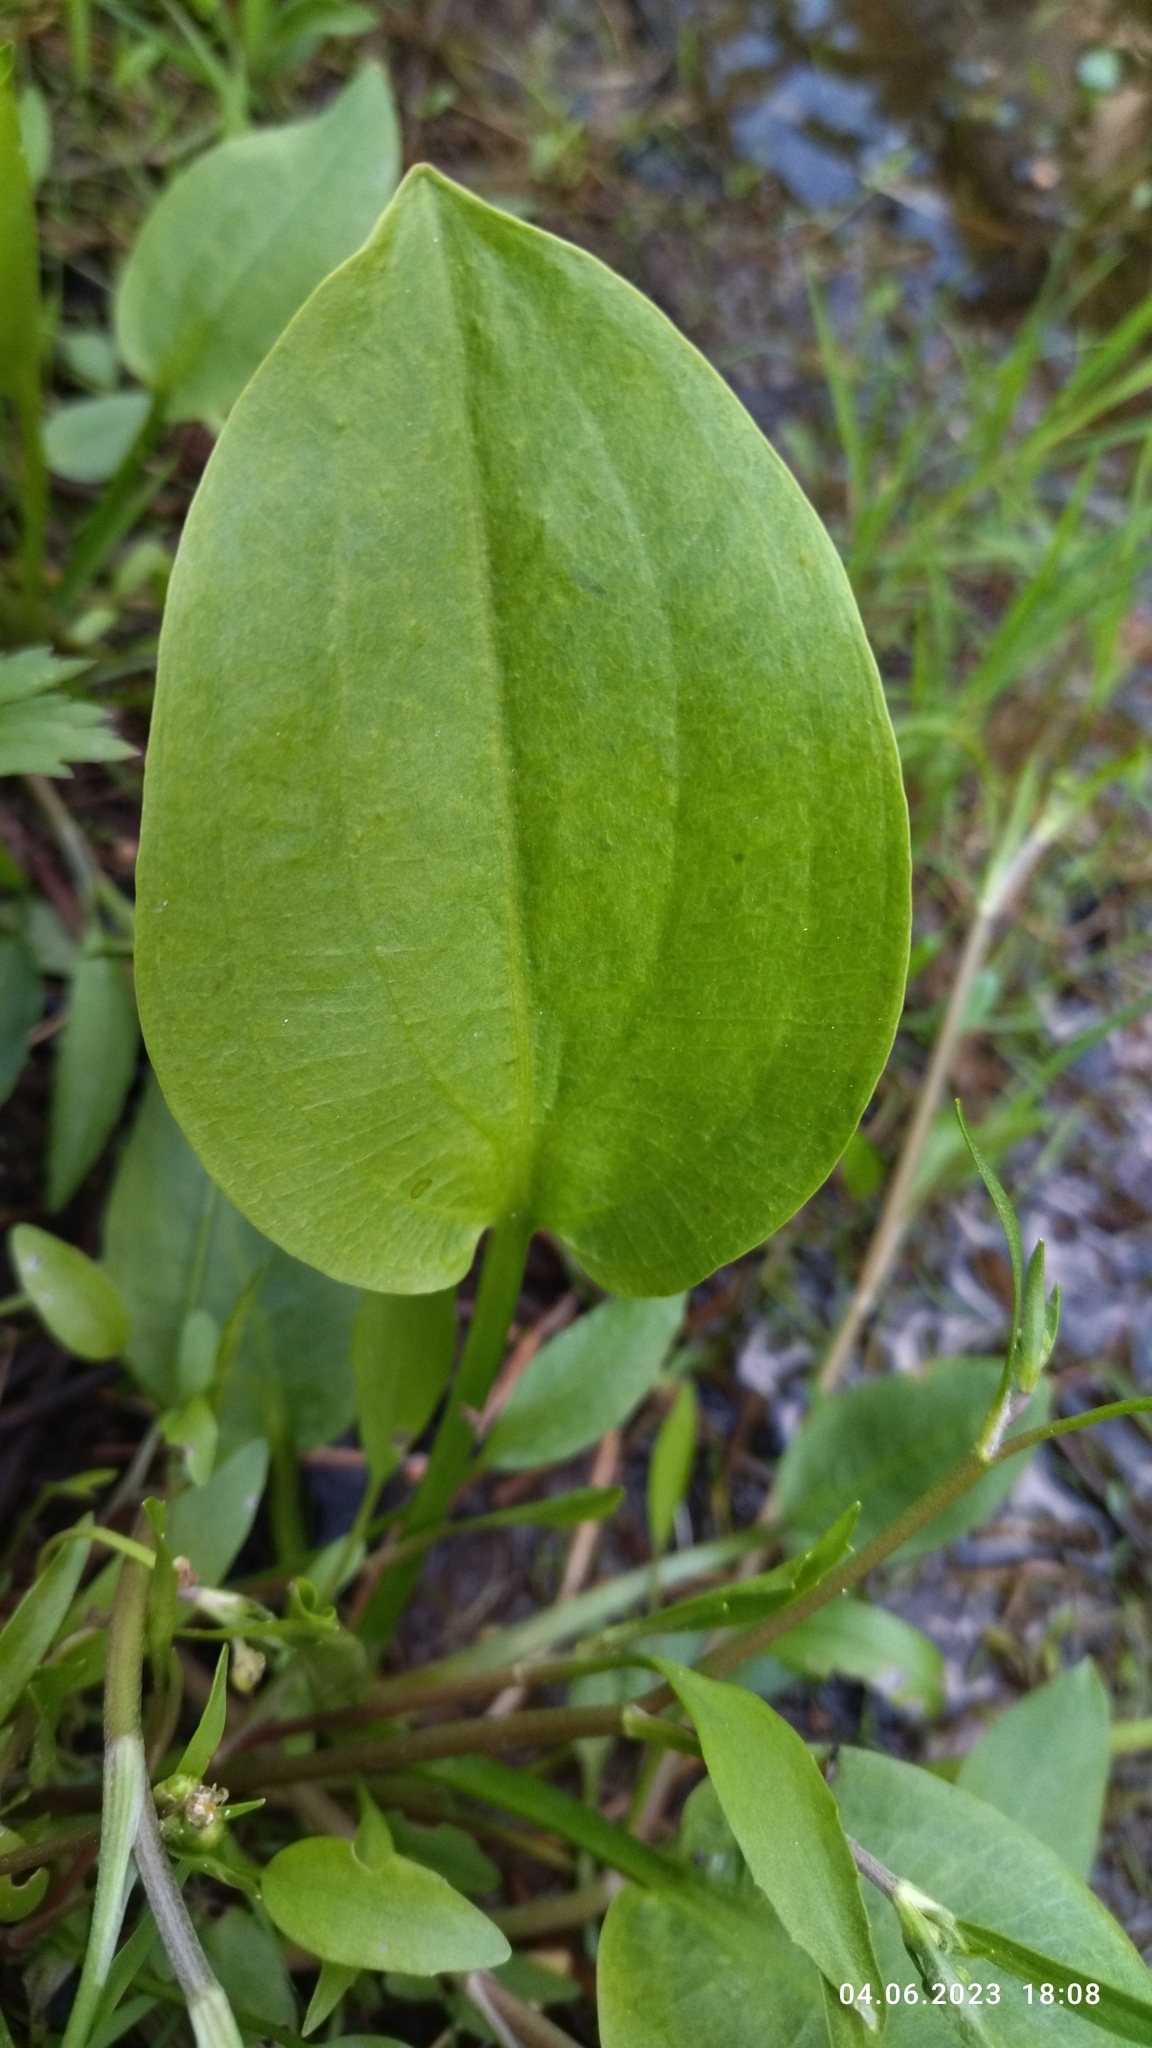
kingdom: Plantae
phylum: Tracheophyta
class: Liliopsida
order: Alismatales
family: Alismataceae
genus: Alisma
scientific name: Alisma plantago-aquatica
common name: Water-plantain
